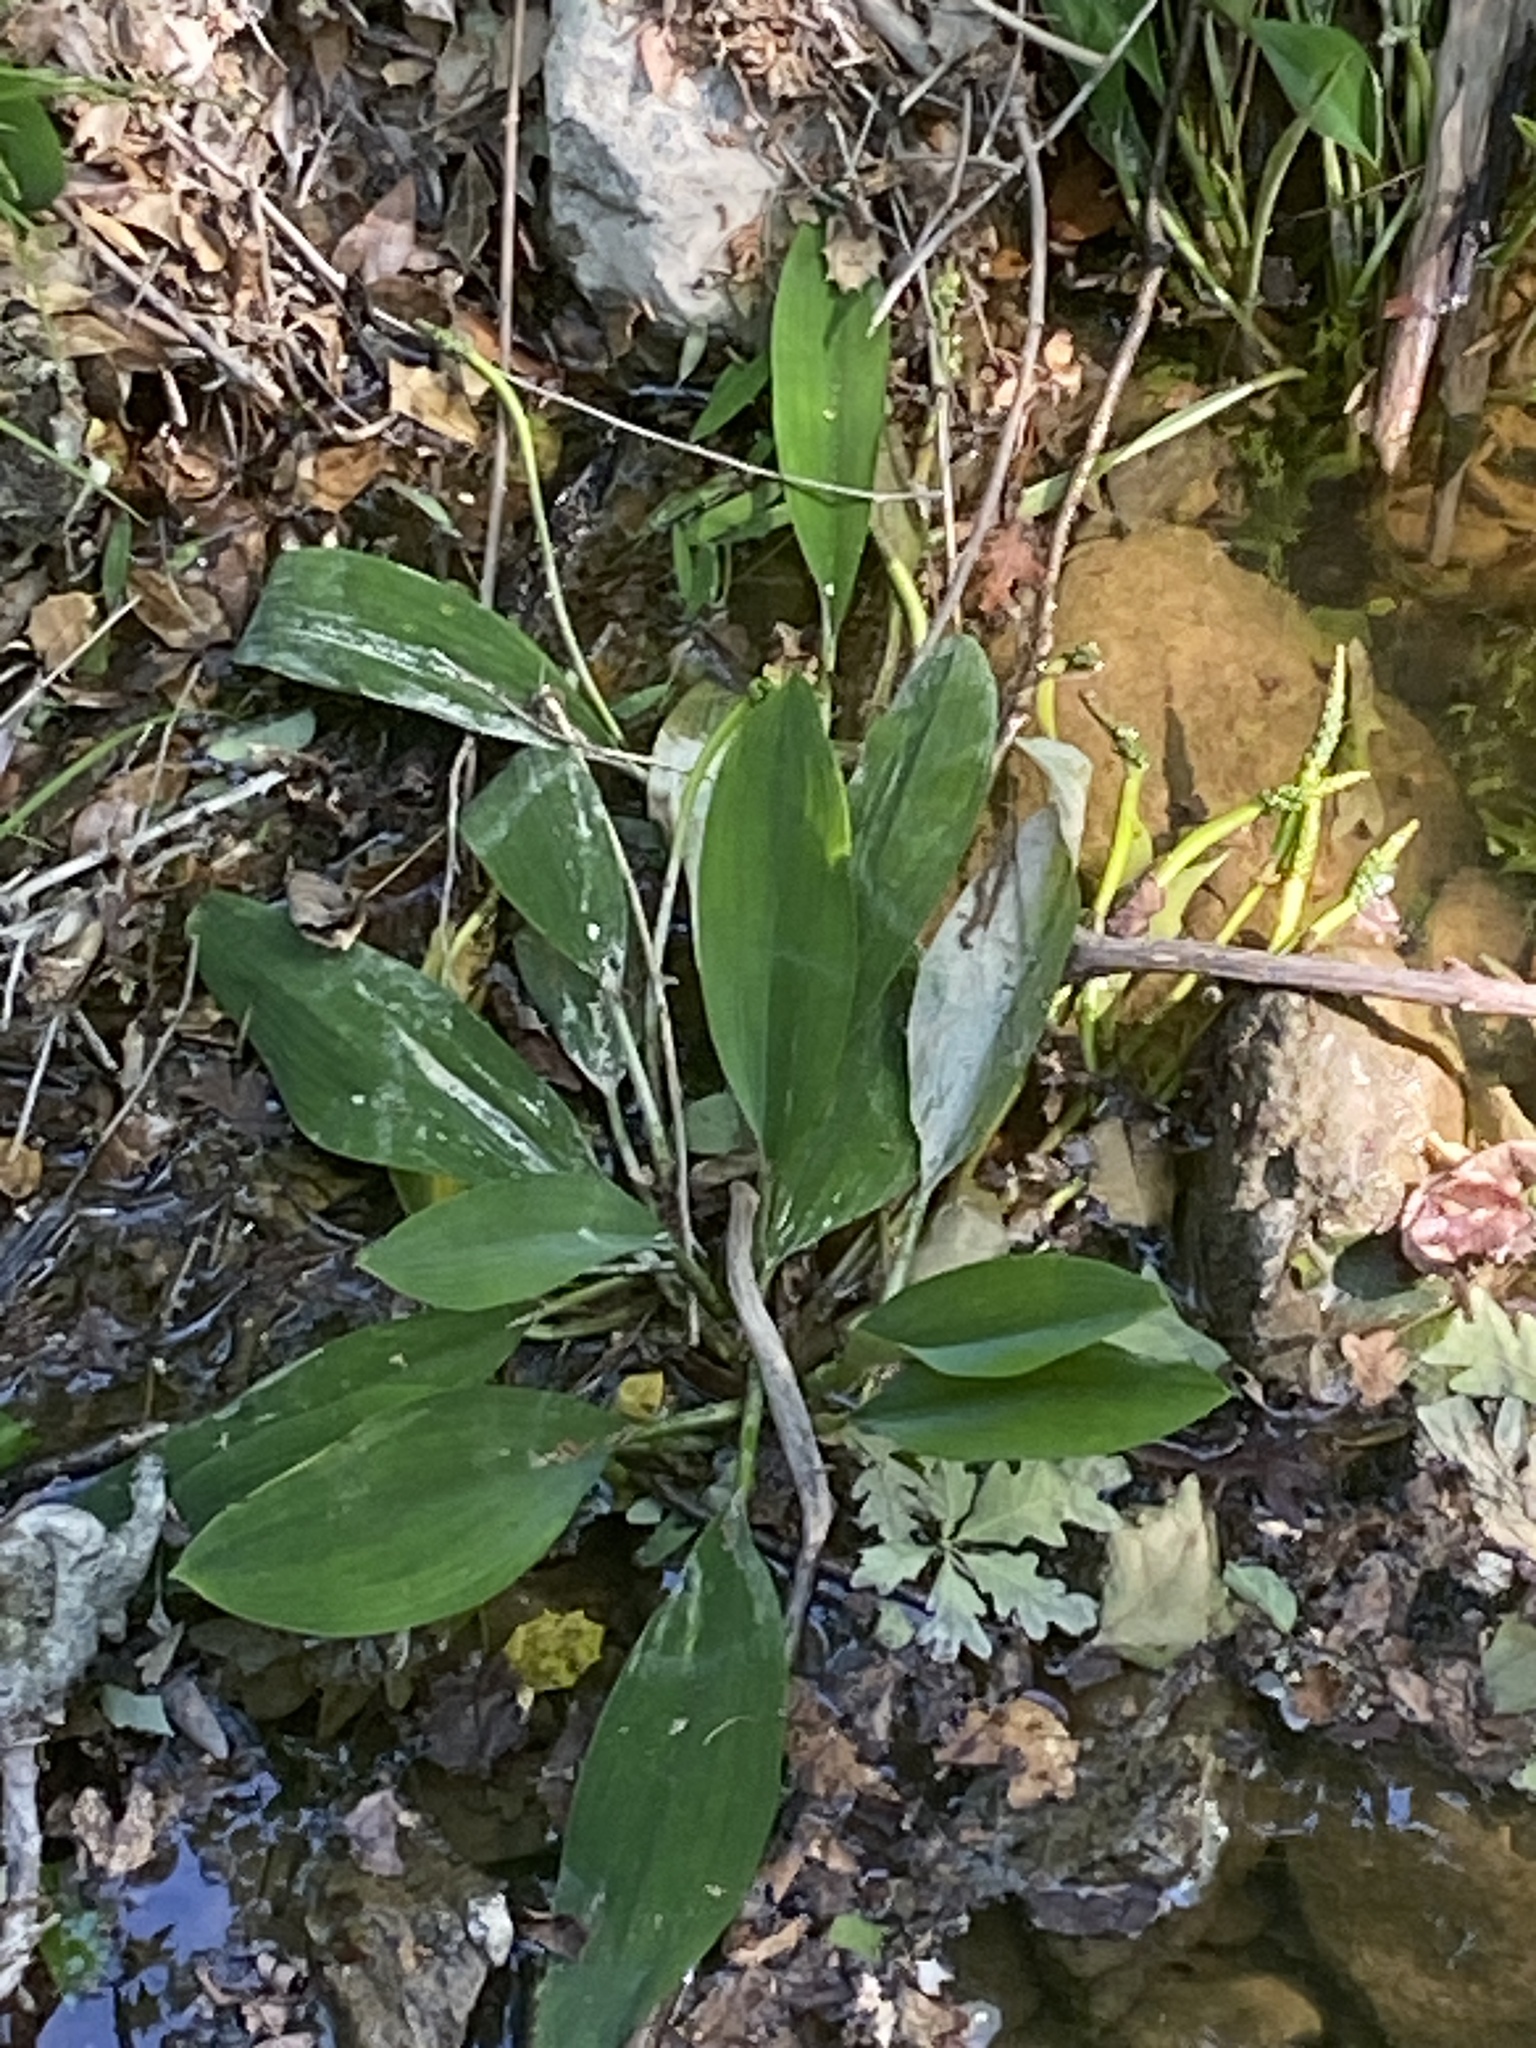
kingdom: Plantae
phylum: Tracheophyta
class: Liliopsida
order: Alismatales
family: Araceae
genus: Orontium
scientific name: Orontium aquaticum
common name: Golden-club
